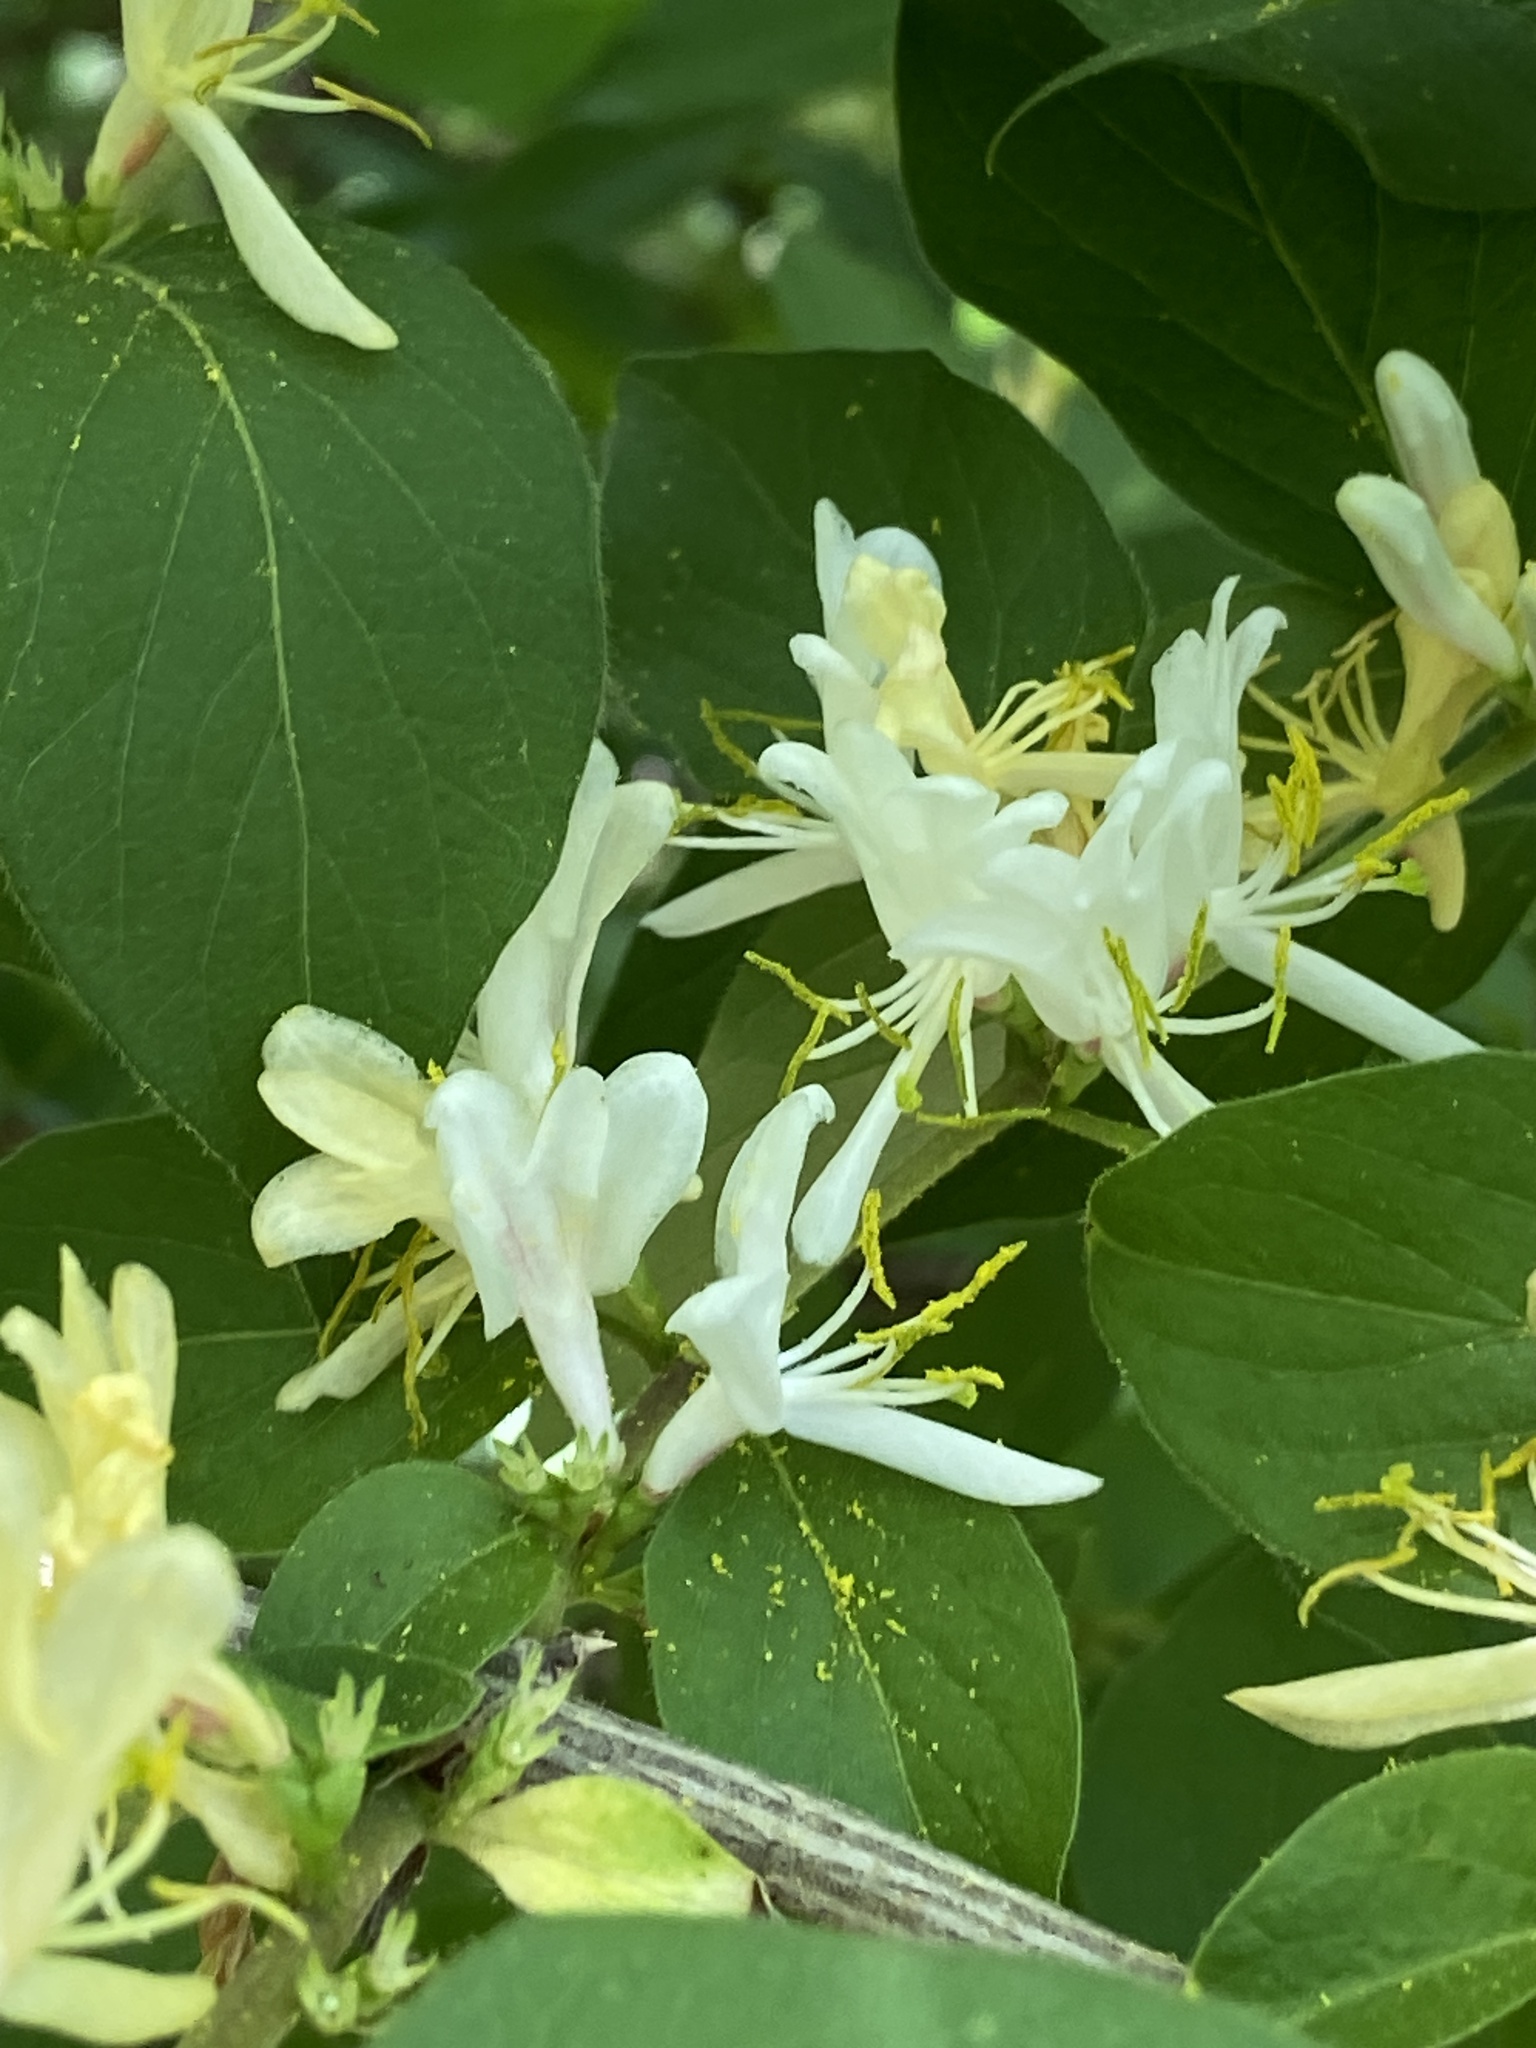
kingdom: Plantae
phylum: Tracheophyta
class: Magnoliopsida
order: Dipsacales
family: Caprifoliaceae
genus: Lonicera
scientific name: Lonicera maackii
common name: Amur honeysuckle
